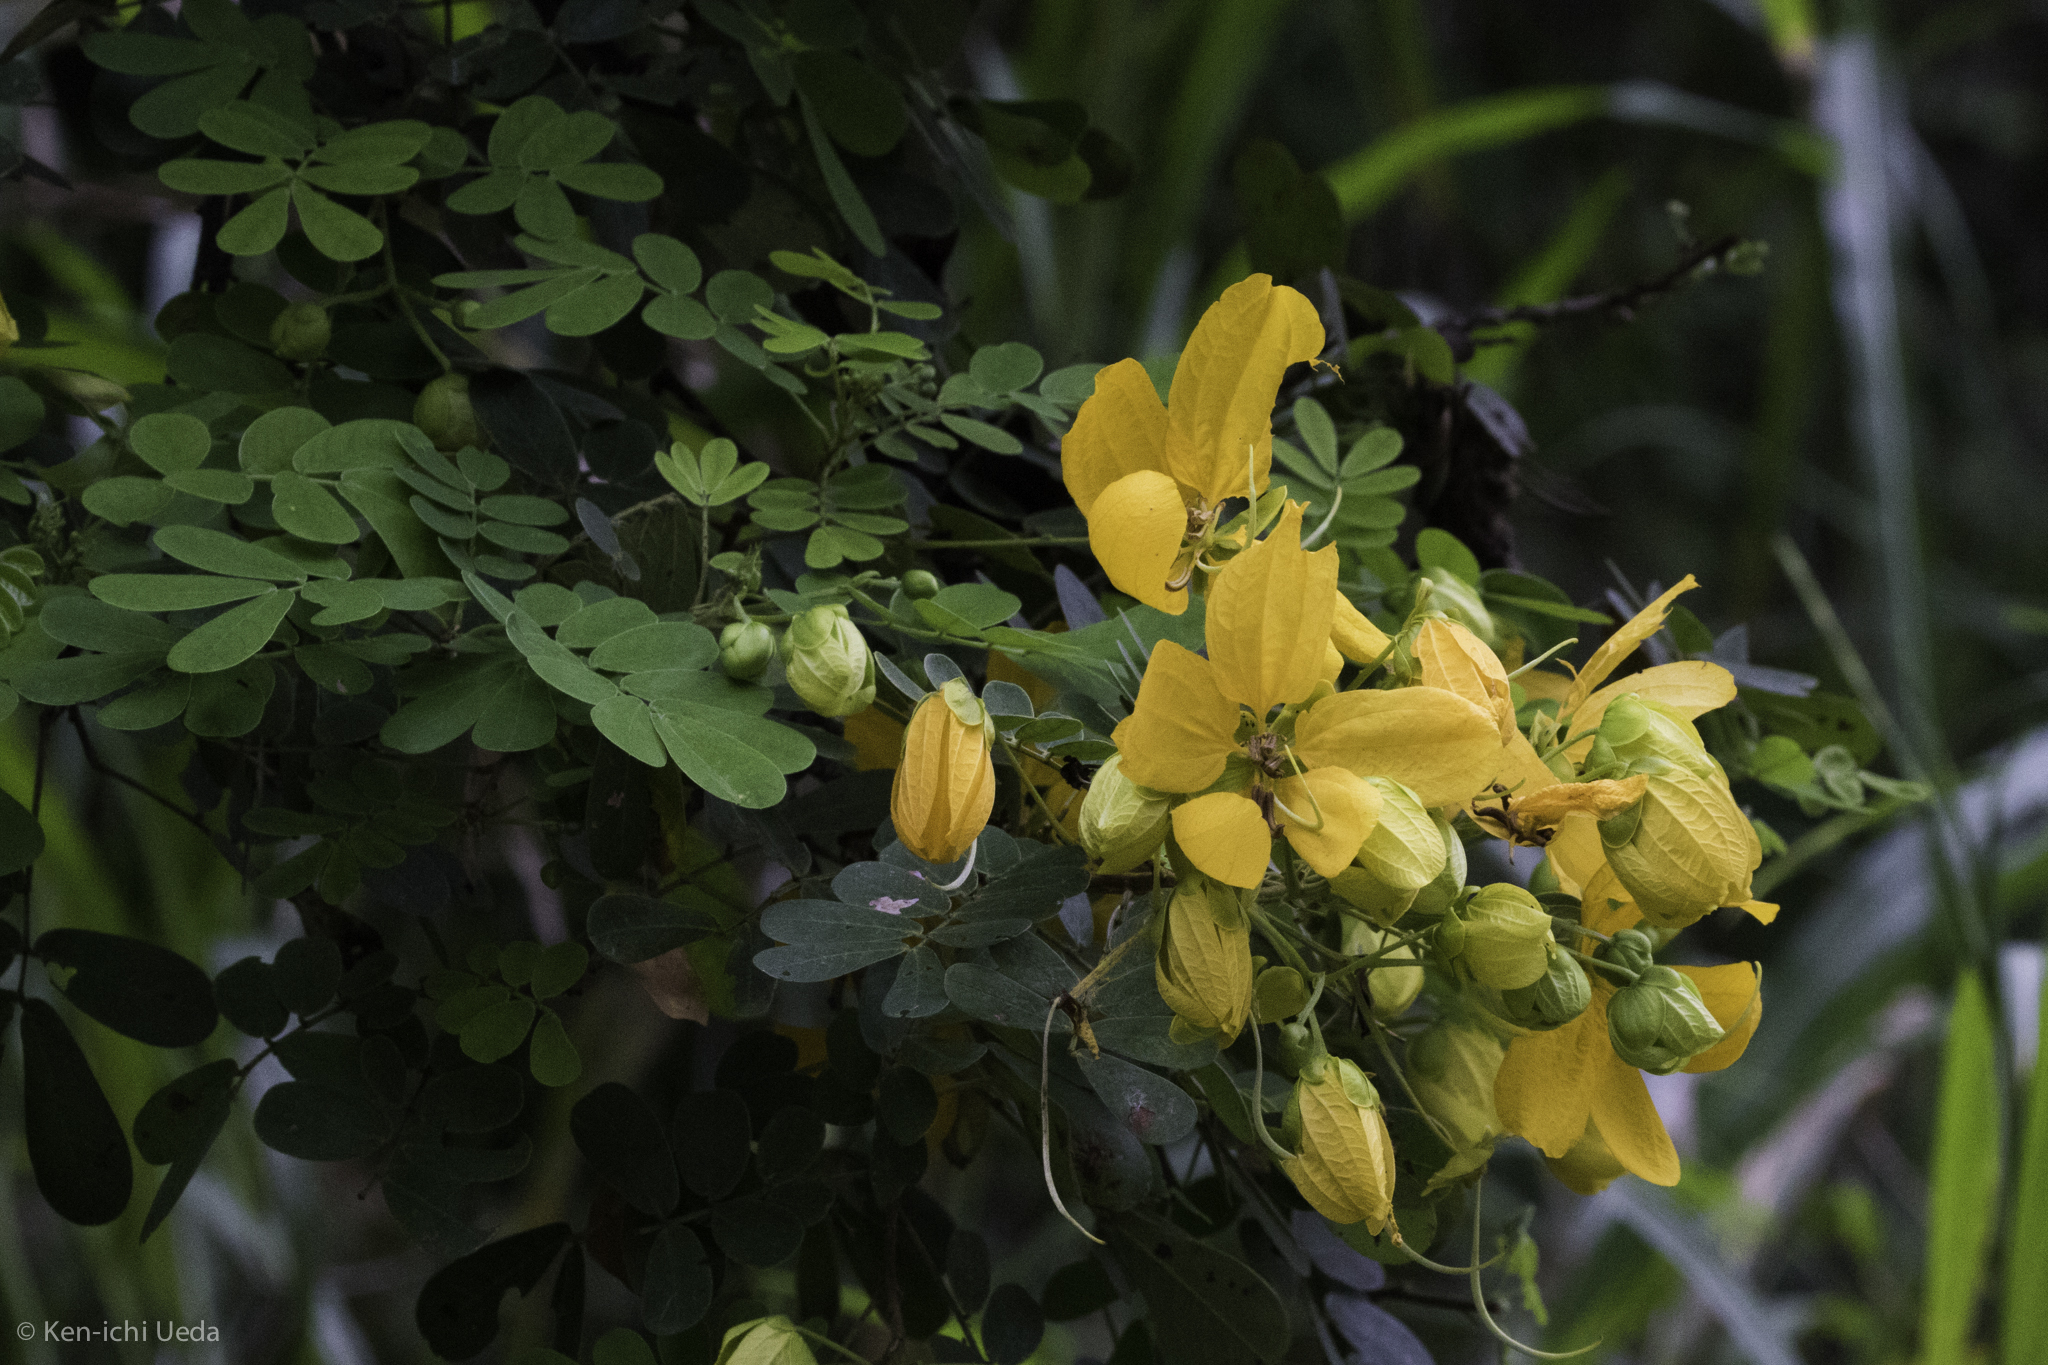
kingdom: Plantae
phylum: Tracheophyta
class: Magnoliopsida
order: Fabales
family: Fabaceae
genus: Senna
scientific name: Senna skinneri
